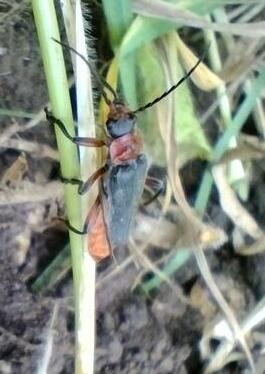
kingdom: Animalia
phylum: Arthropoda
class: Insecta
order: Coleoptera
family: Cantharidae
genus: Cantharis
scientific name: Cantharis rustica
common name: Soldier beetle
